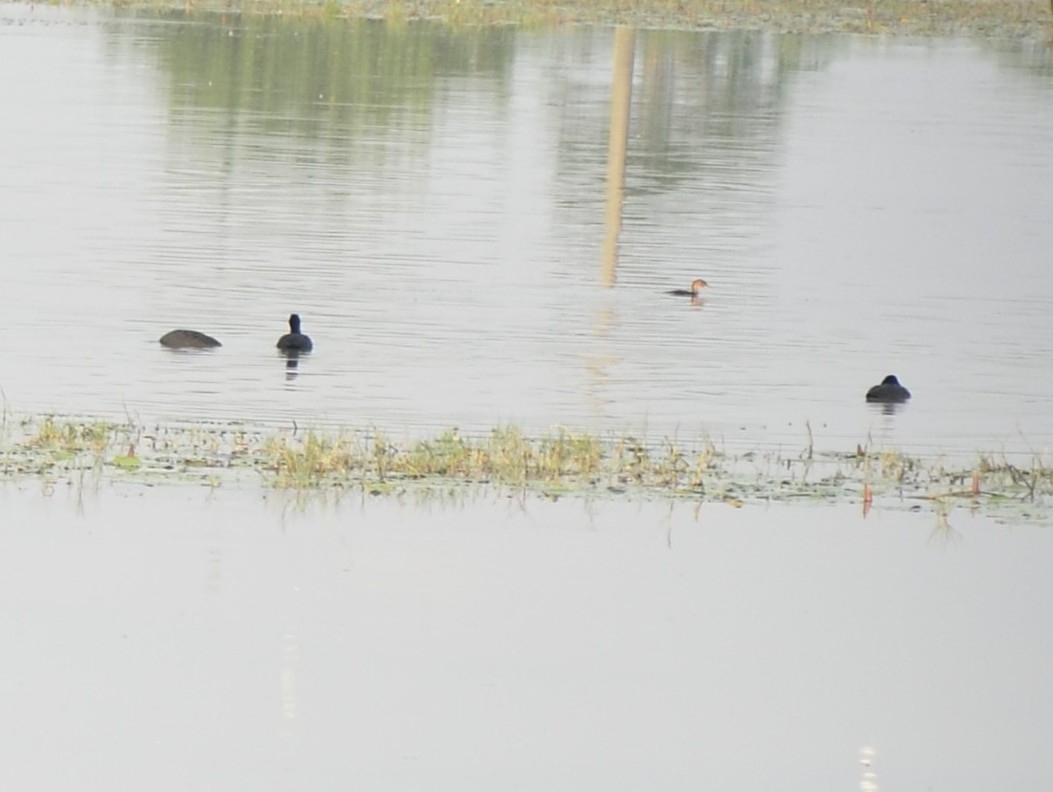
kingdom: Animalia
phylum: Chordata
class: Aves
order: Gruiformes
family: Rallidae
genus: Fulica
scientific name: Fulica atra
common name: Eurasian coot
